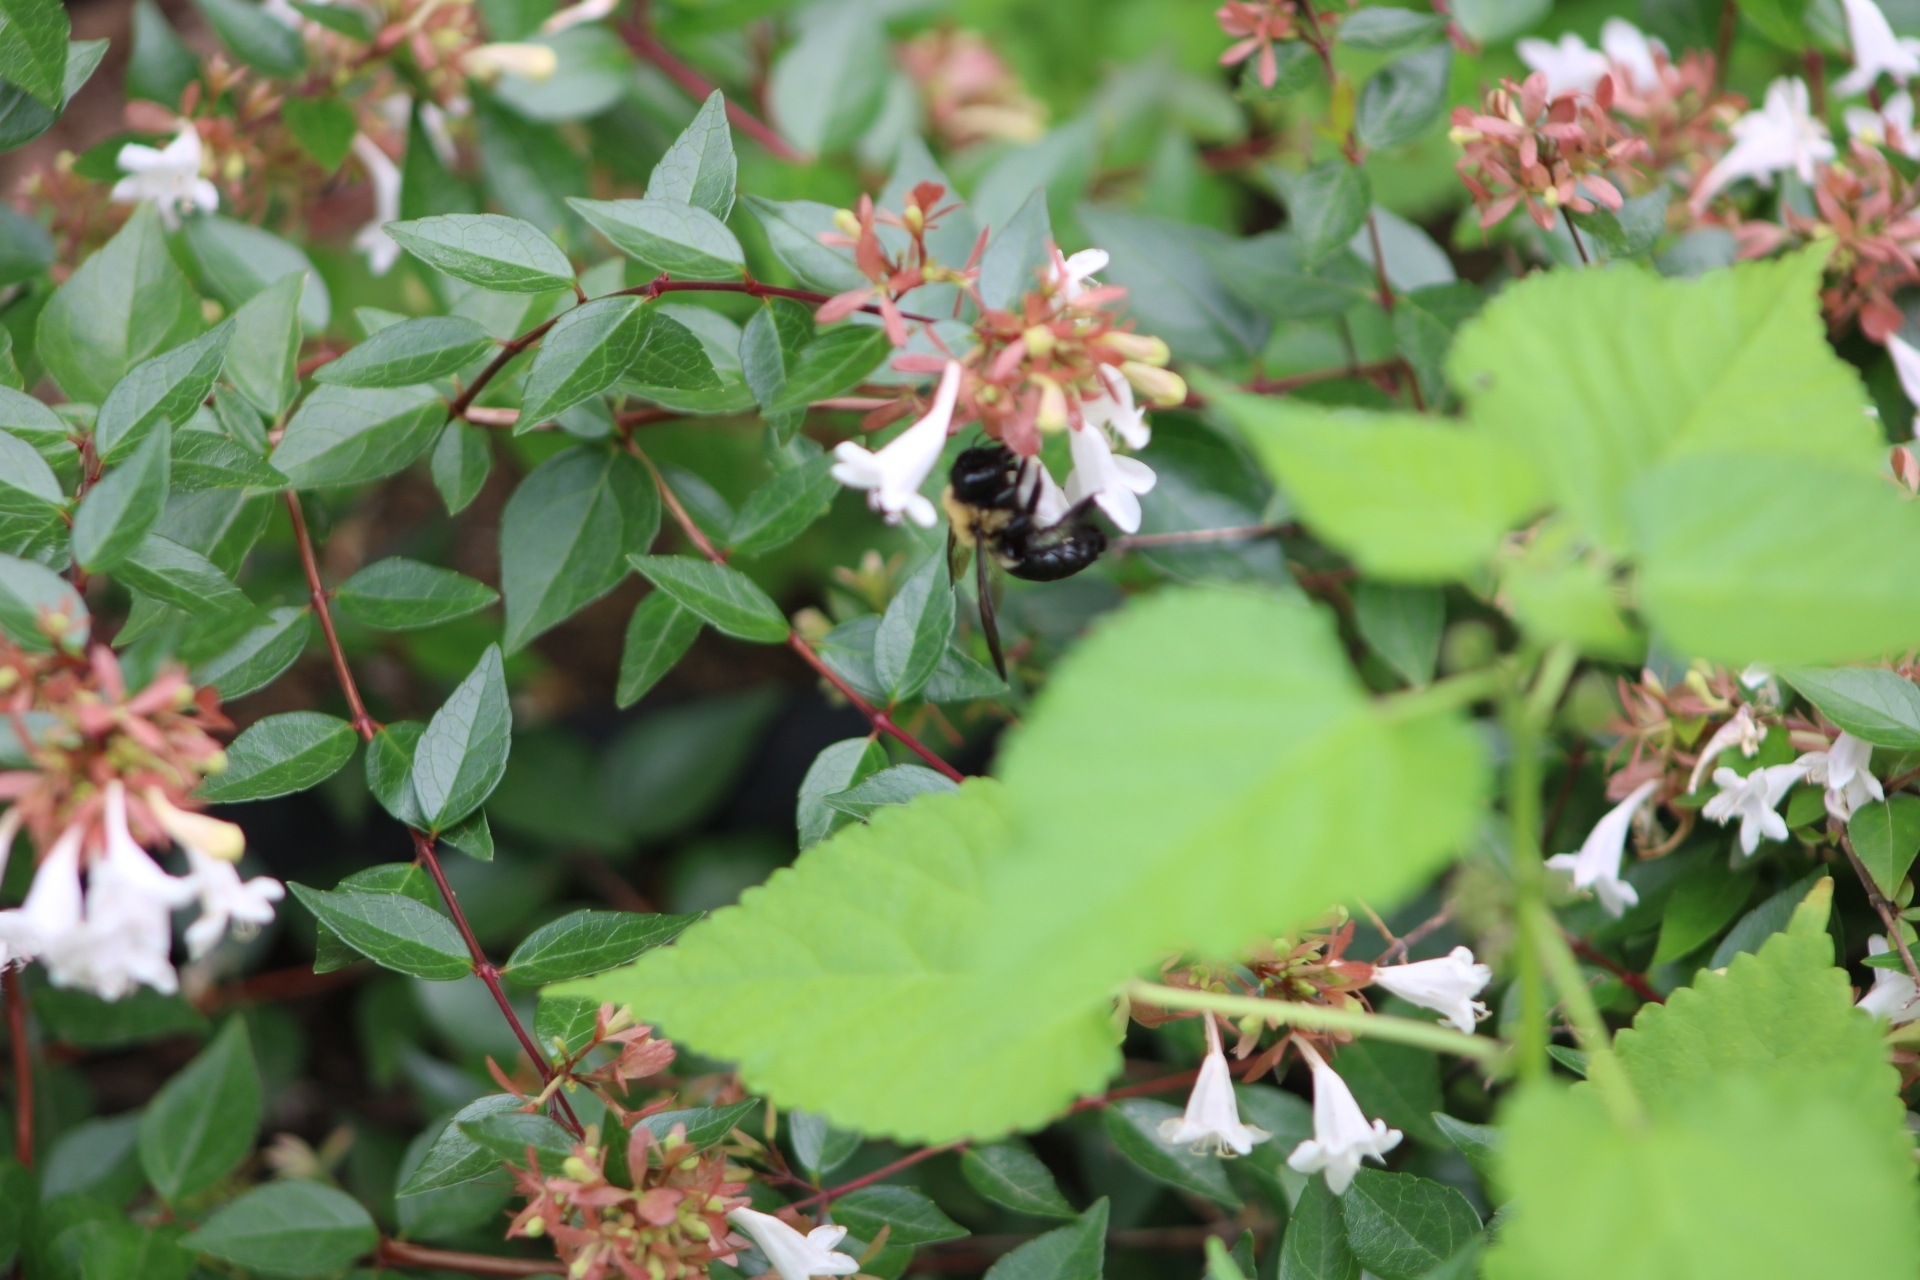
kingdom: Animalia
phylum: Arthropoda
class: Insecta
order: Hymenoptera
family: Apidae
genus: Xylocopa
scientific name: Xylocopa virginica
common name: Carpenter bee
